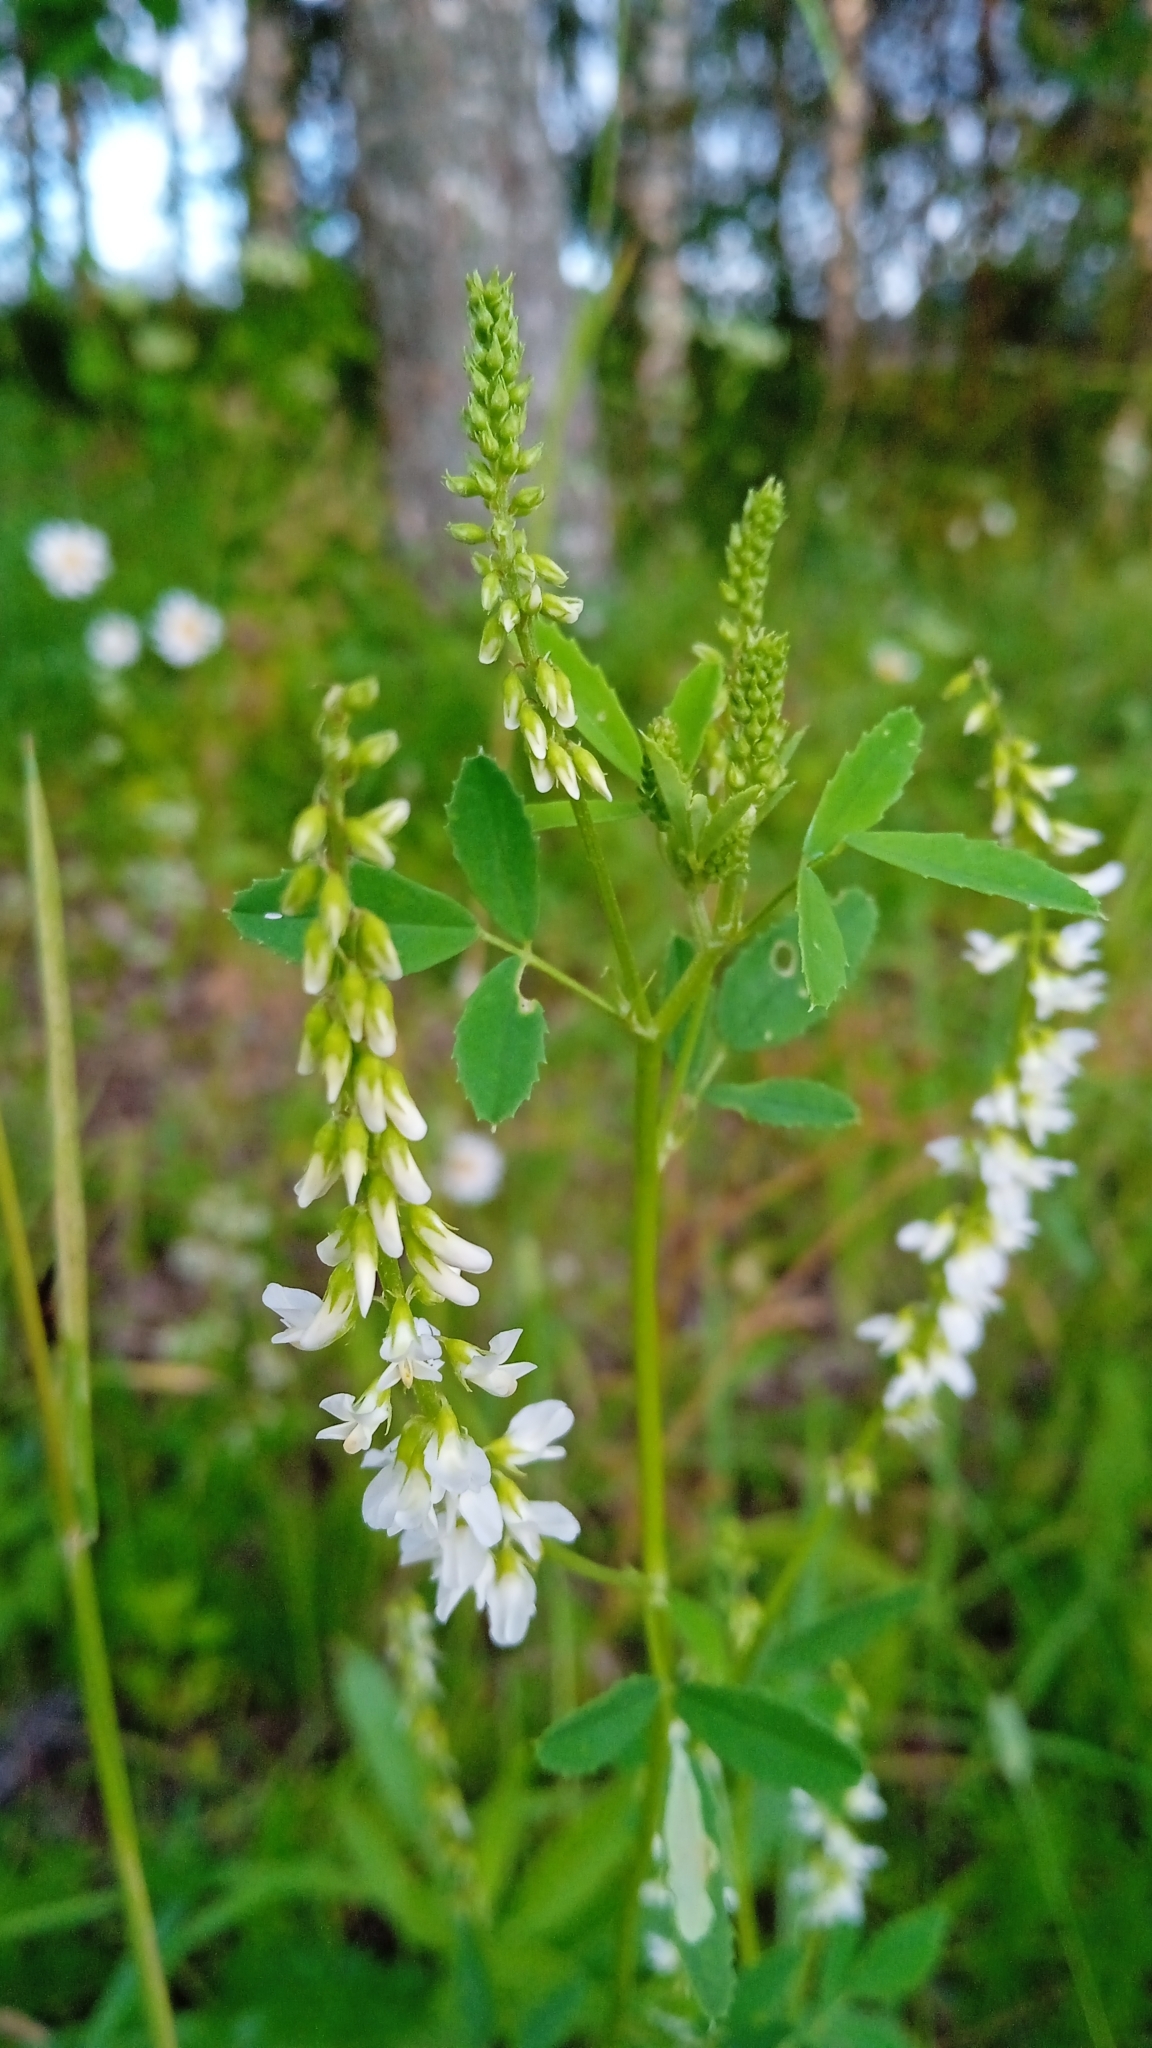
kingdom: Plantae
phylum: Tracheophyta
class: Magnoliopsida
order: Fabales
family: Fabaceae
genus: Melilotus
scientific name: Melilotus albus
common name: White melilot
